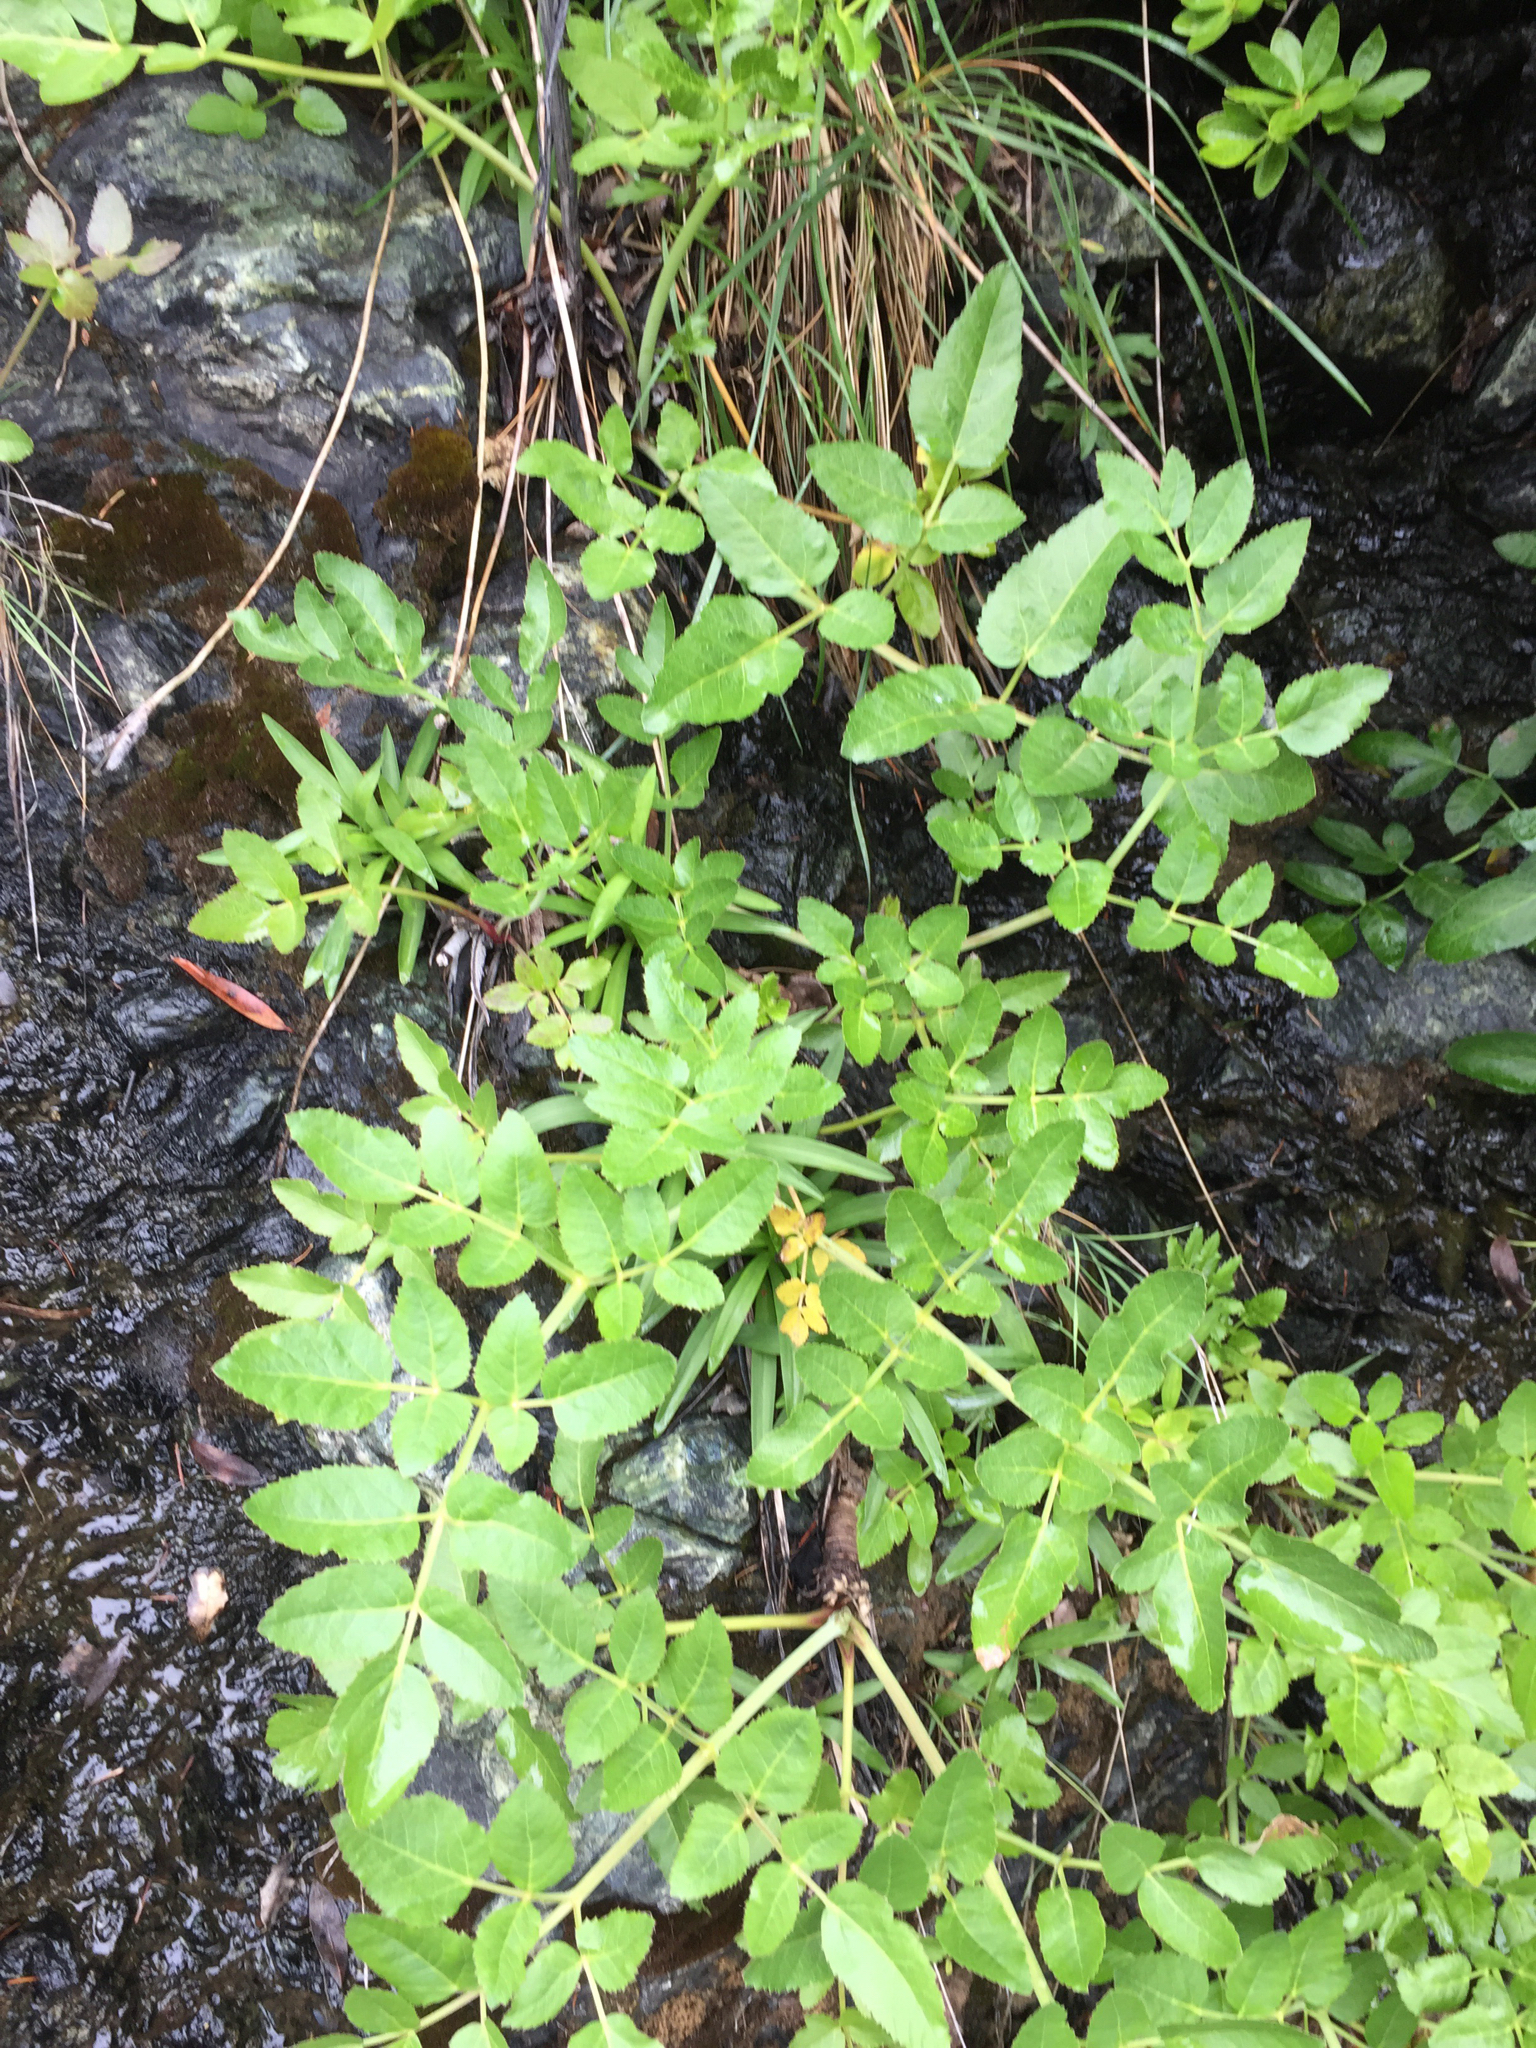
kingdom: Plantae
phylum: Tracheophyta
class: Magnoliopsida
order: Apiales
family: Apiaceae
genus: Angelica
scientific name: Angelica tomentosa
